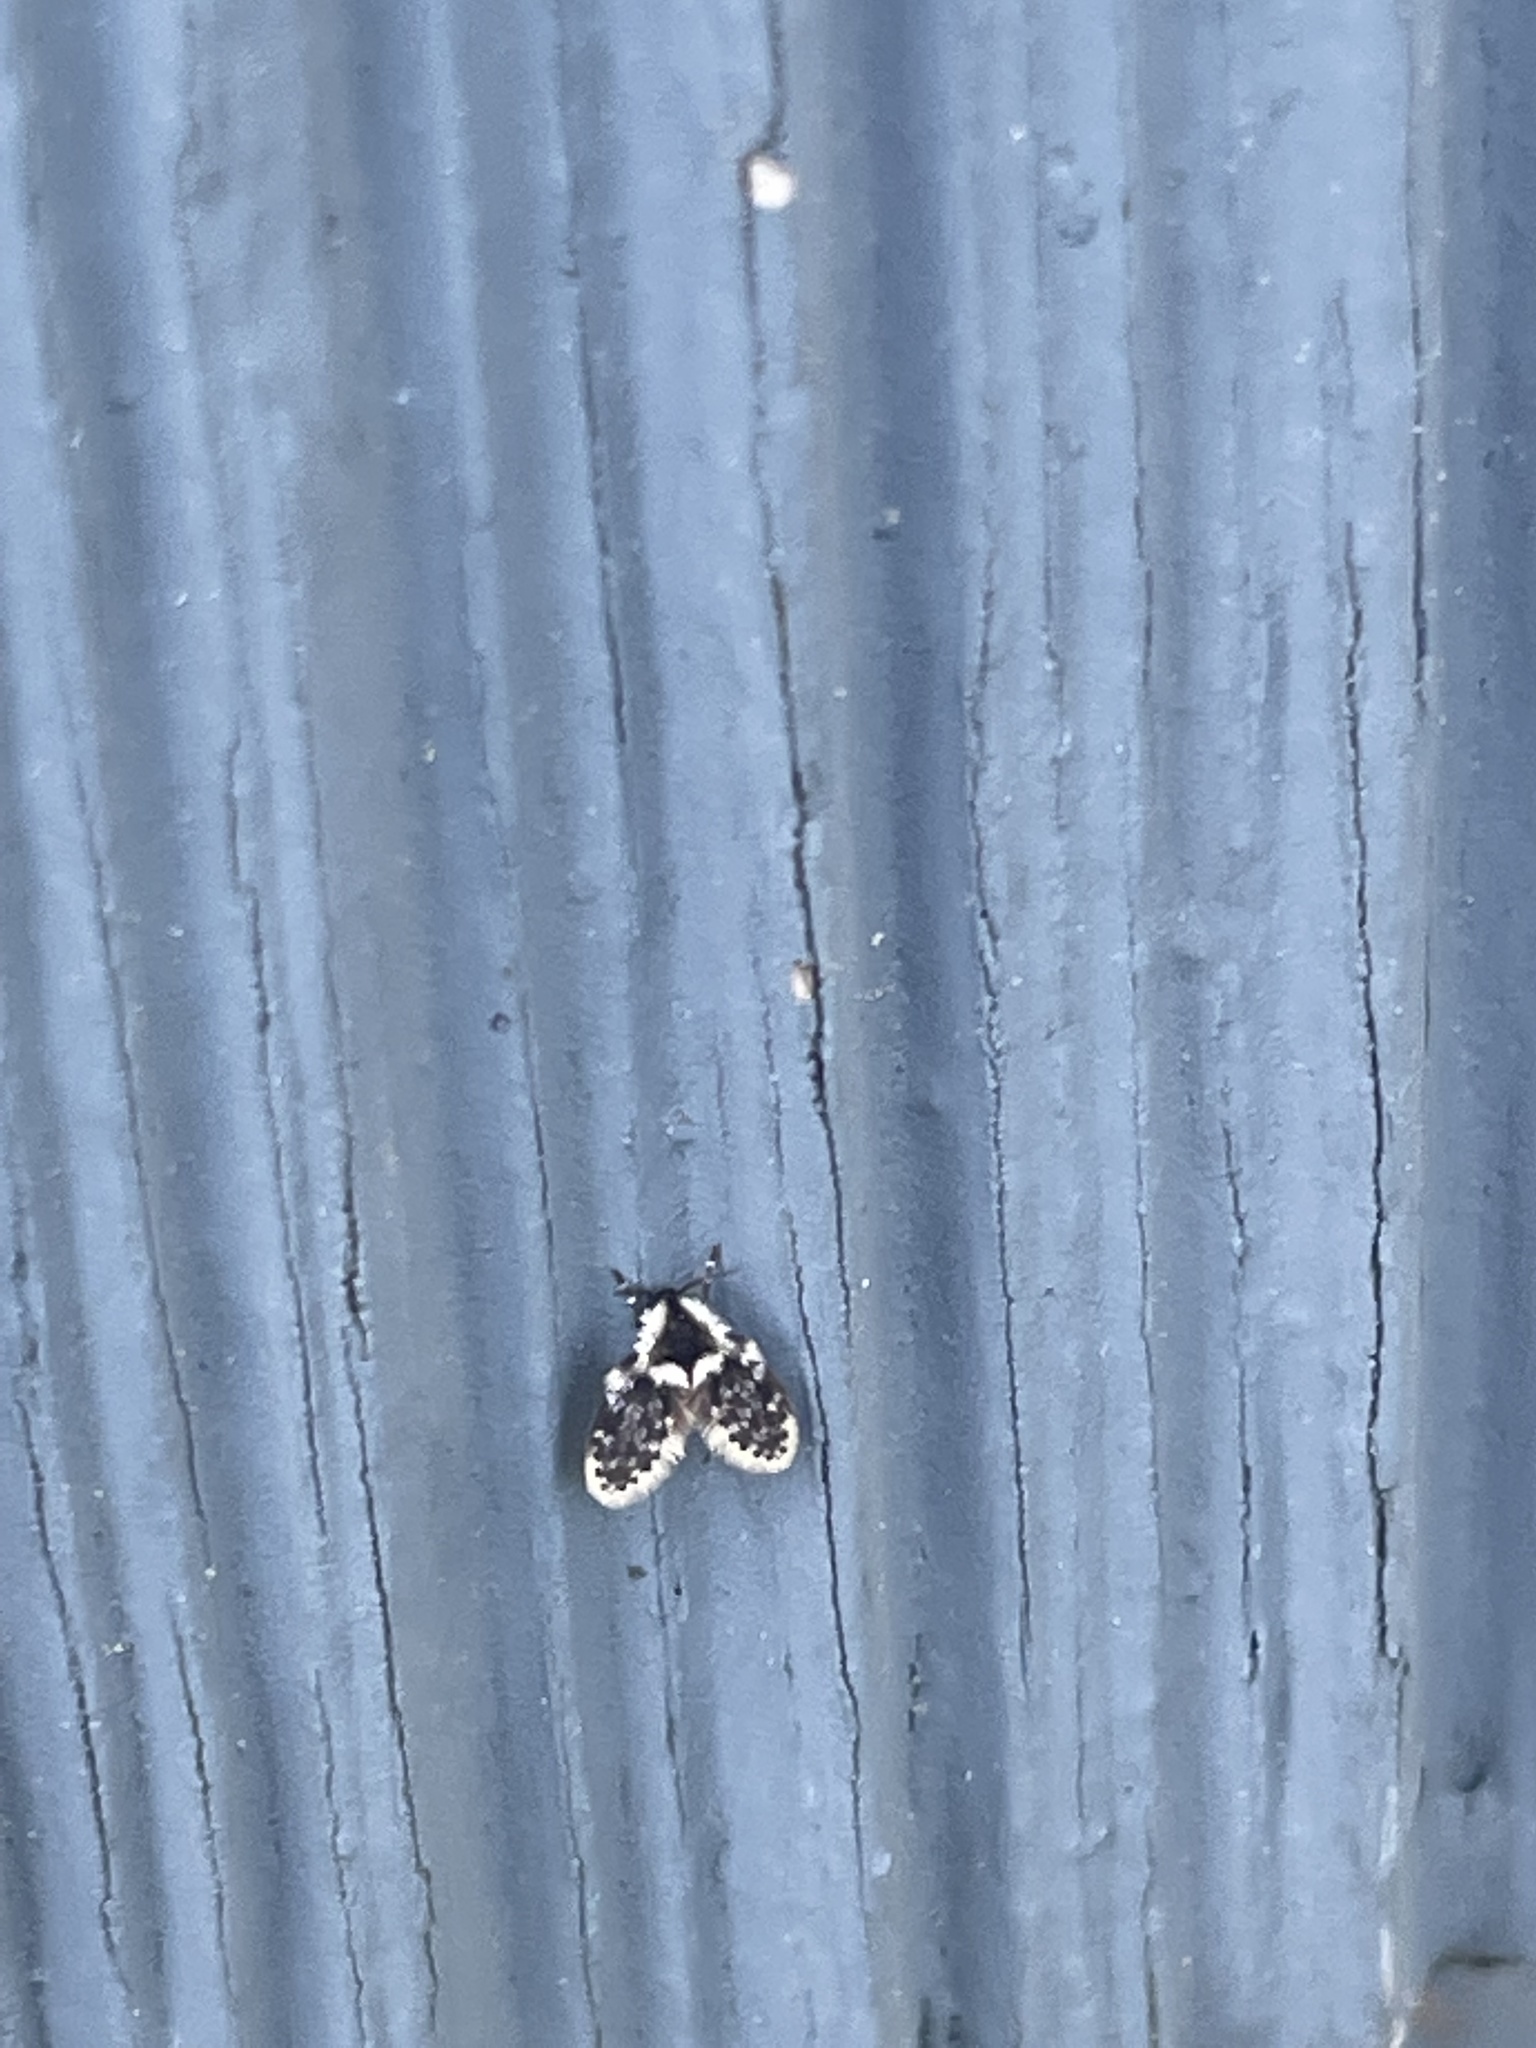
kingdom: Animalia
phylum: Arthropoda
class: Insecta
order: Diptera
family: Psychodidae
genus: Lepiseodina
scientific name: Lepiseodina
